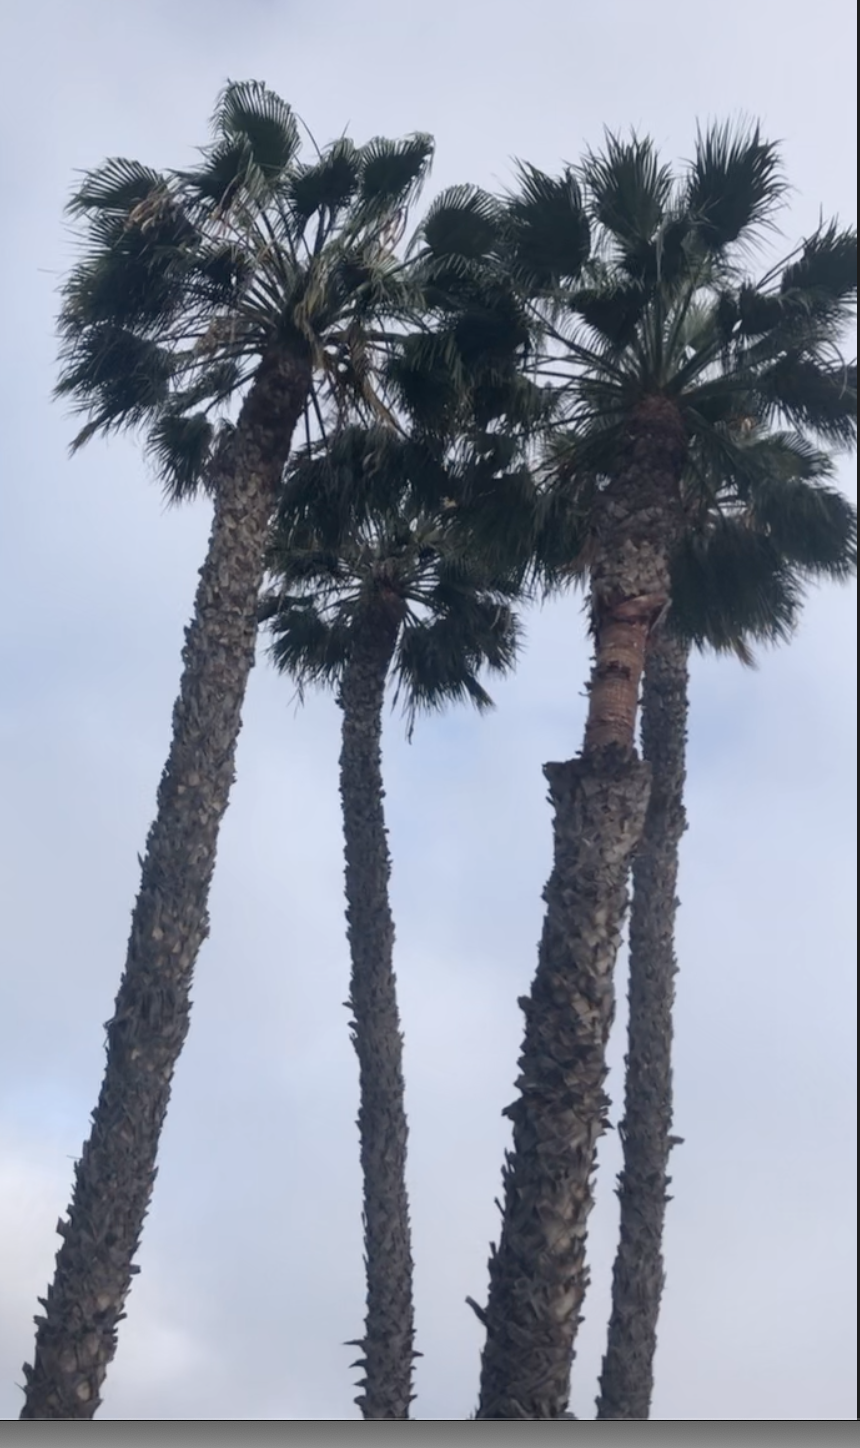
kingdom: Plantae
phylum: Tracheophyta
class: Liliopsida
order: Arecales
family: Arecaceae
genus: Washingtonia
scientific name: Washingtonia robusta
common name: Mexican fan palm
